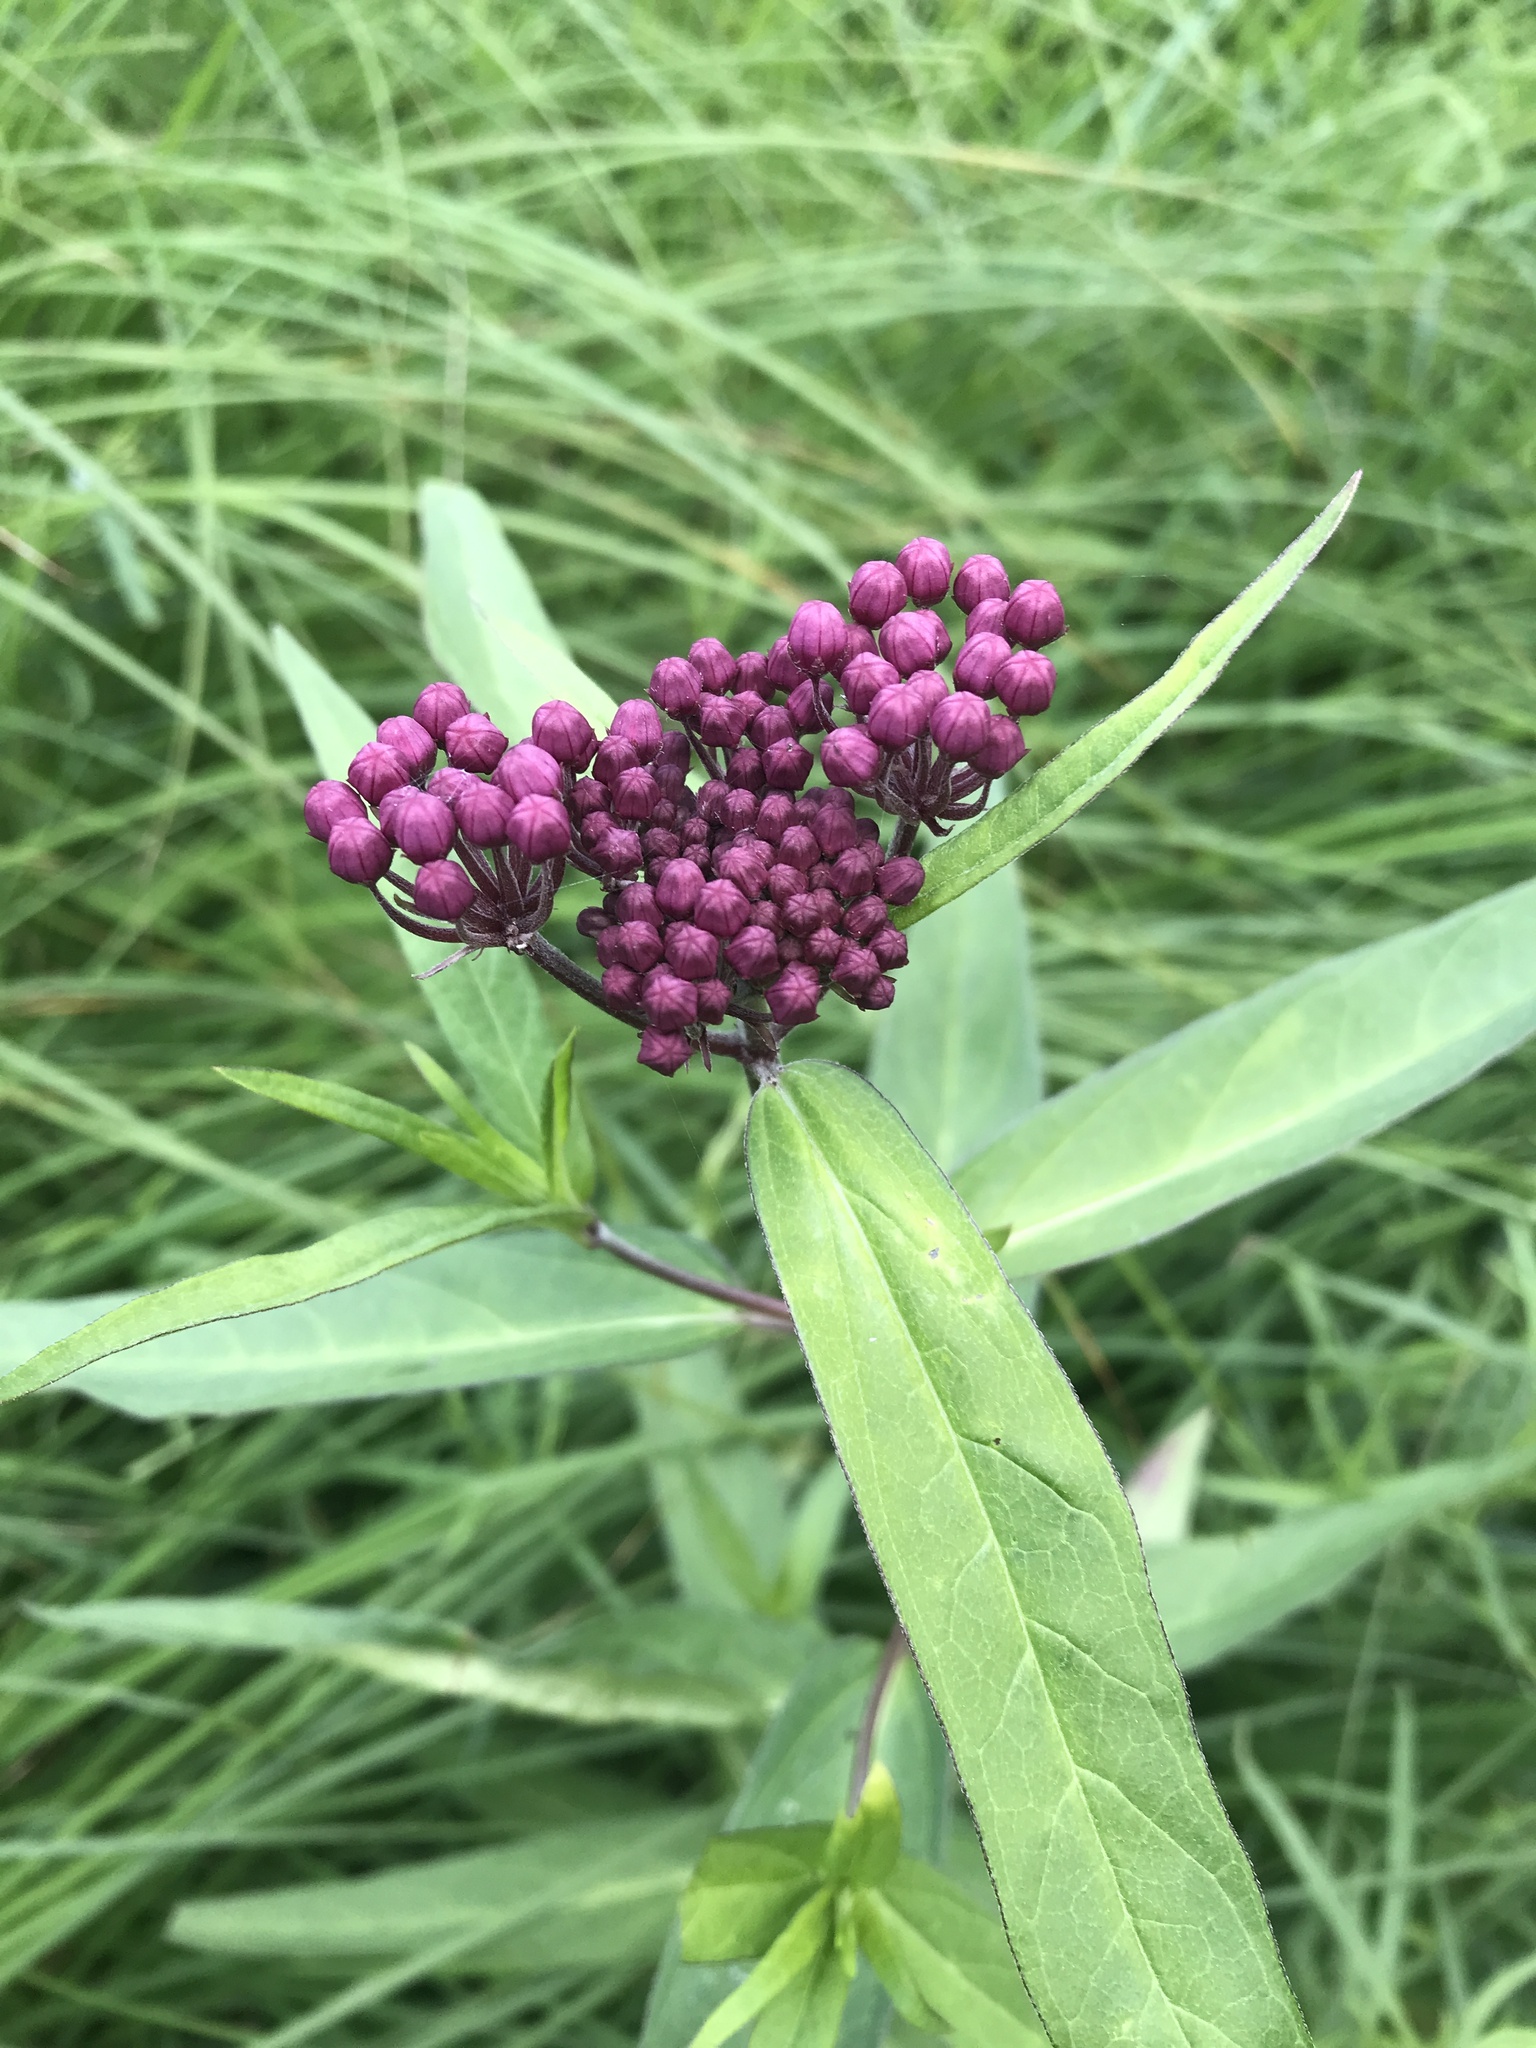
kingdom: Plantae
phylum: Tracheophyta
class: Magnoliopsida
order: Gentianales
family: Apocynaceae
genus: Asclepias
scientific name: Asclepias incarnata
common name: Swamp milkweed
